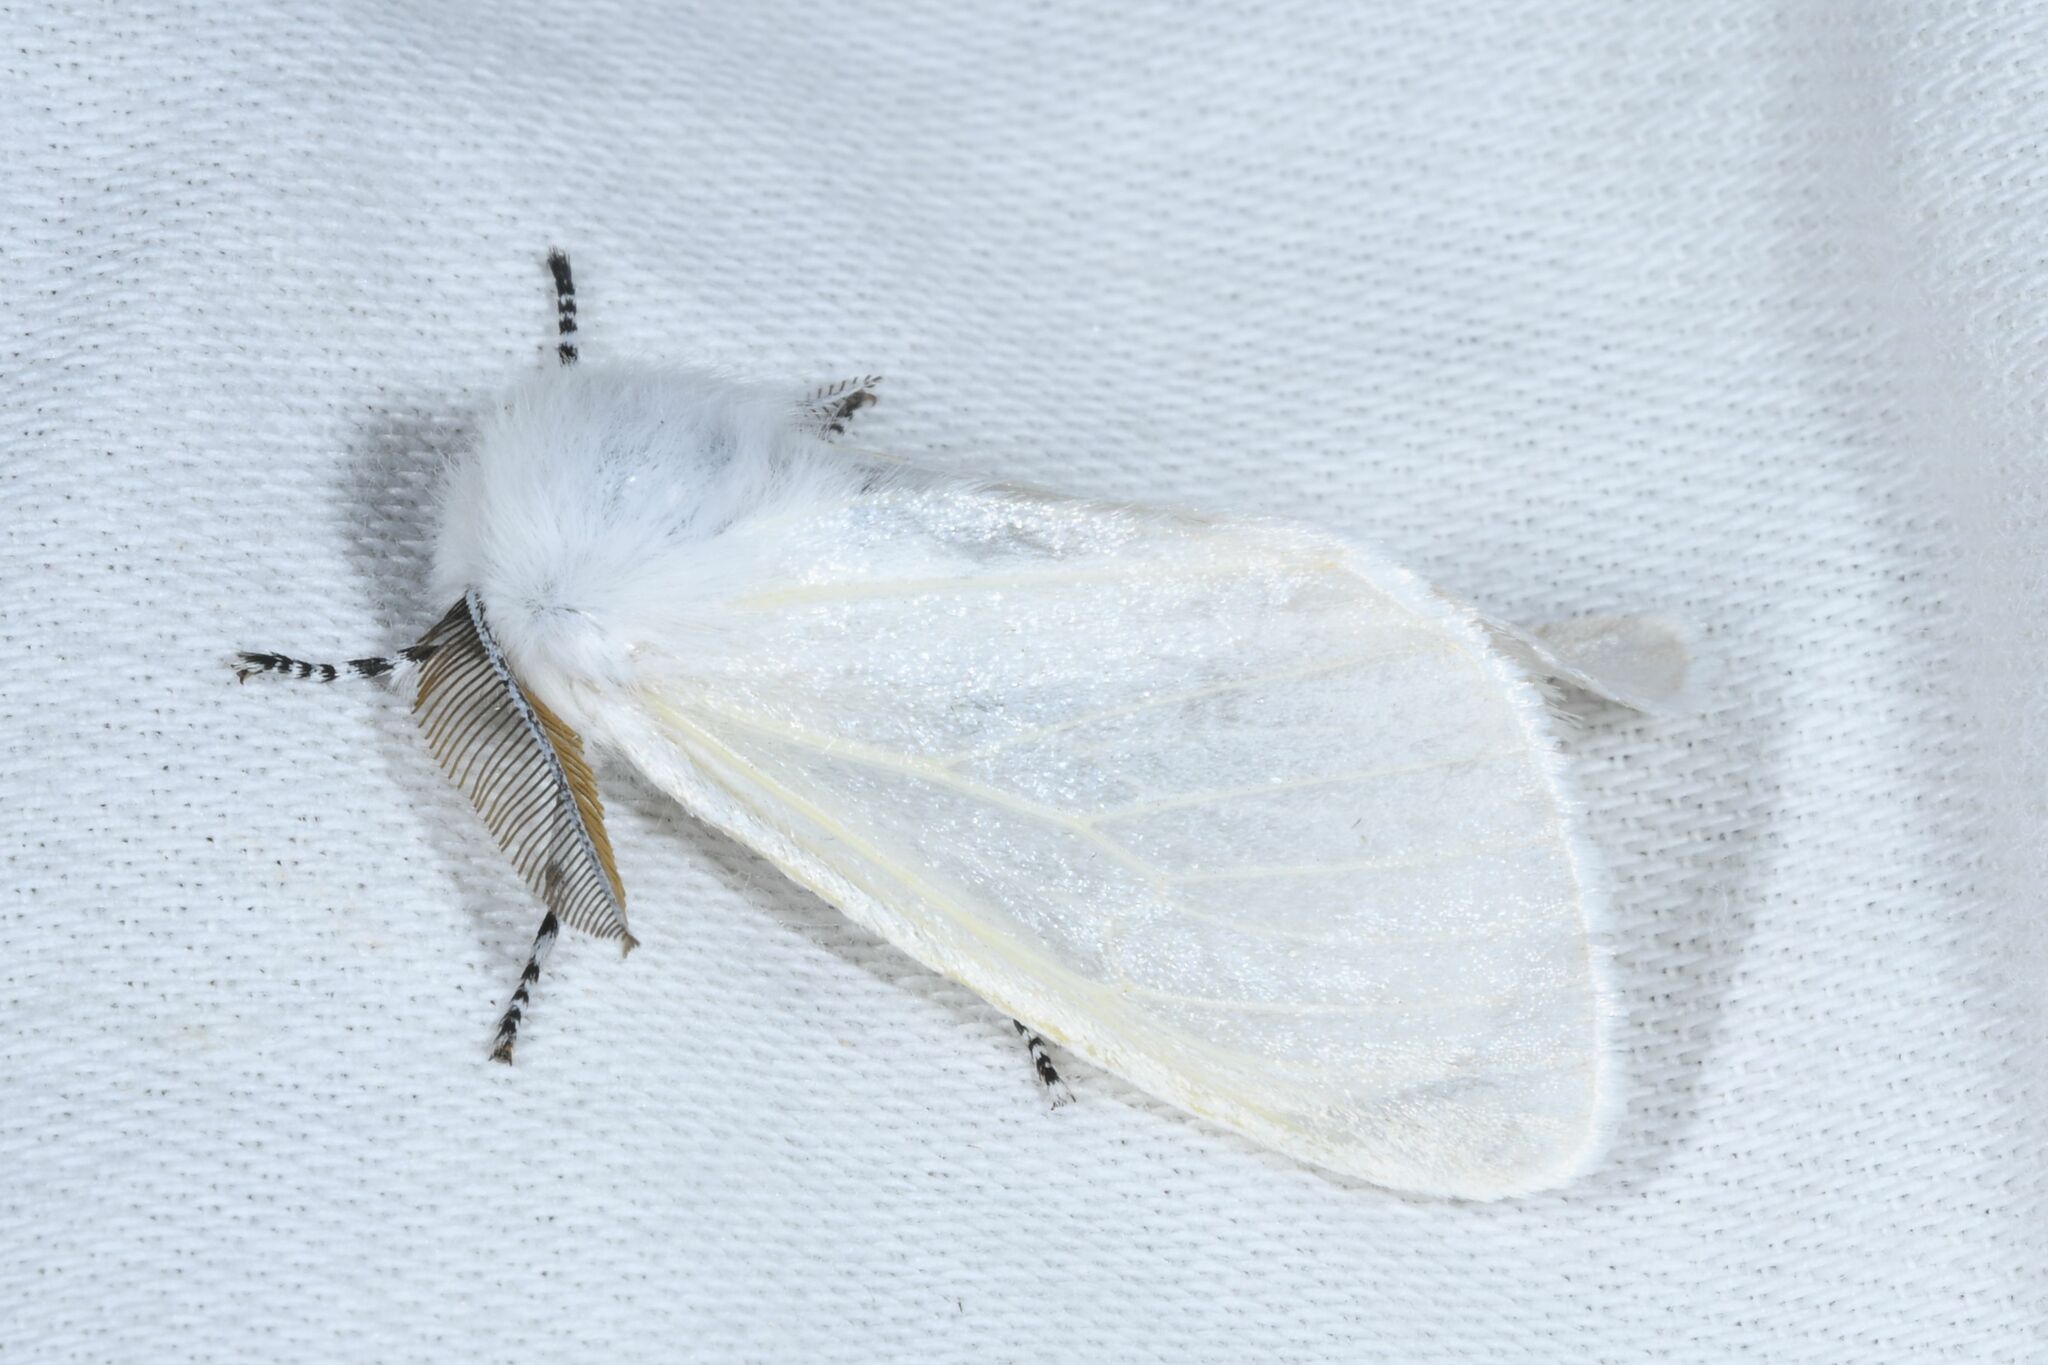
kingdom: Animalia
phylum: Arthropoda
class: Insecta
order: Lepidoptera
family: Erebidae
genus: Leucoma
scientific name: Leucoma salicis
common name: White satin moth
